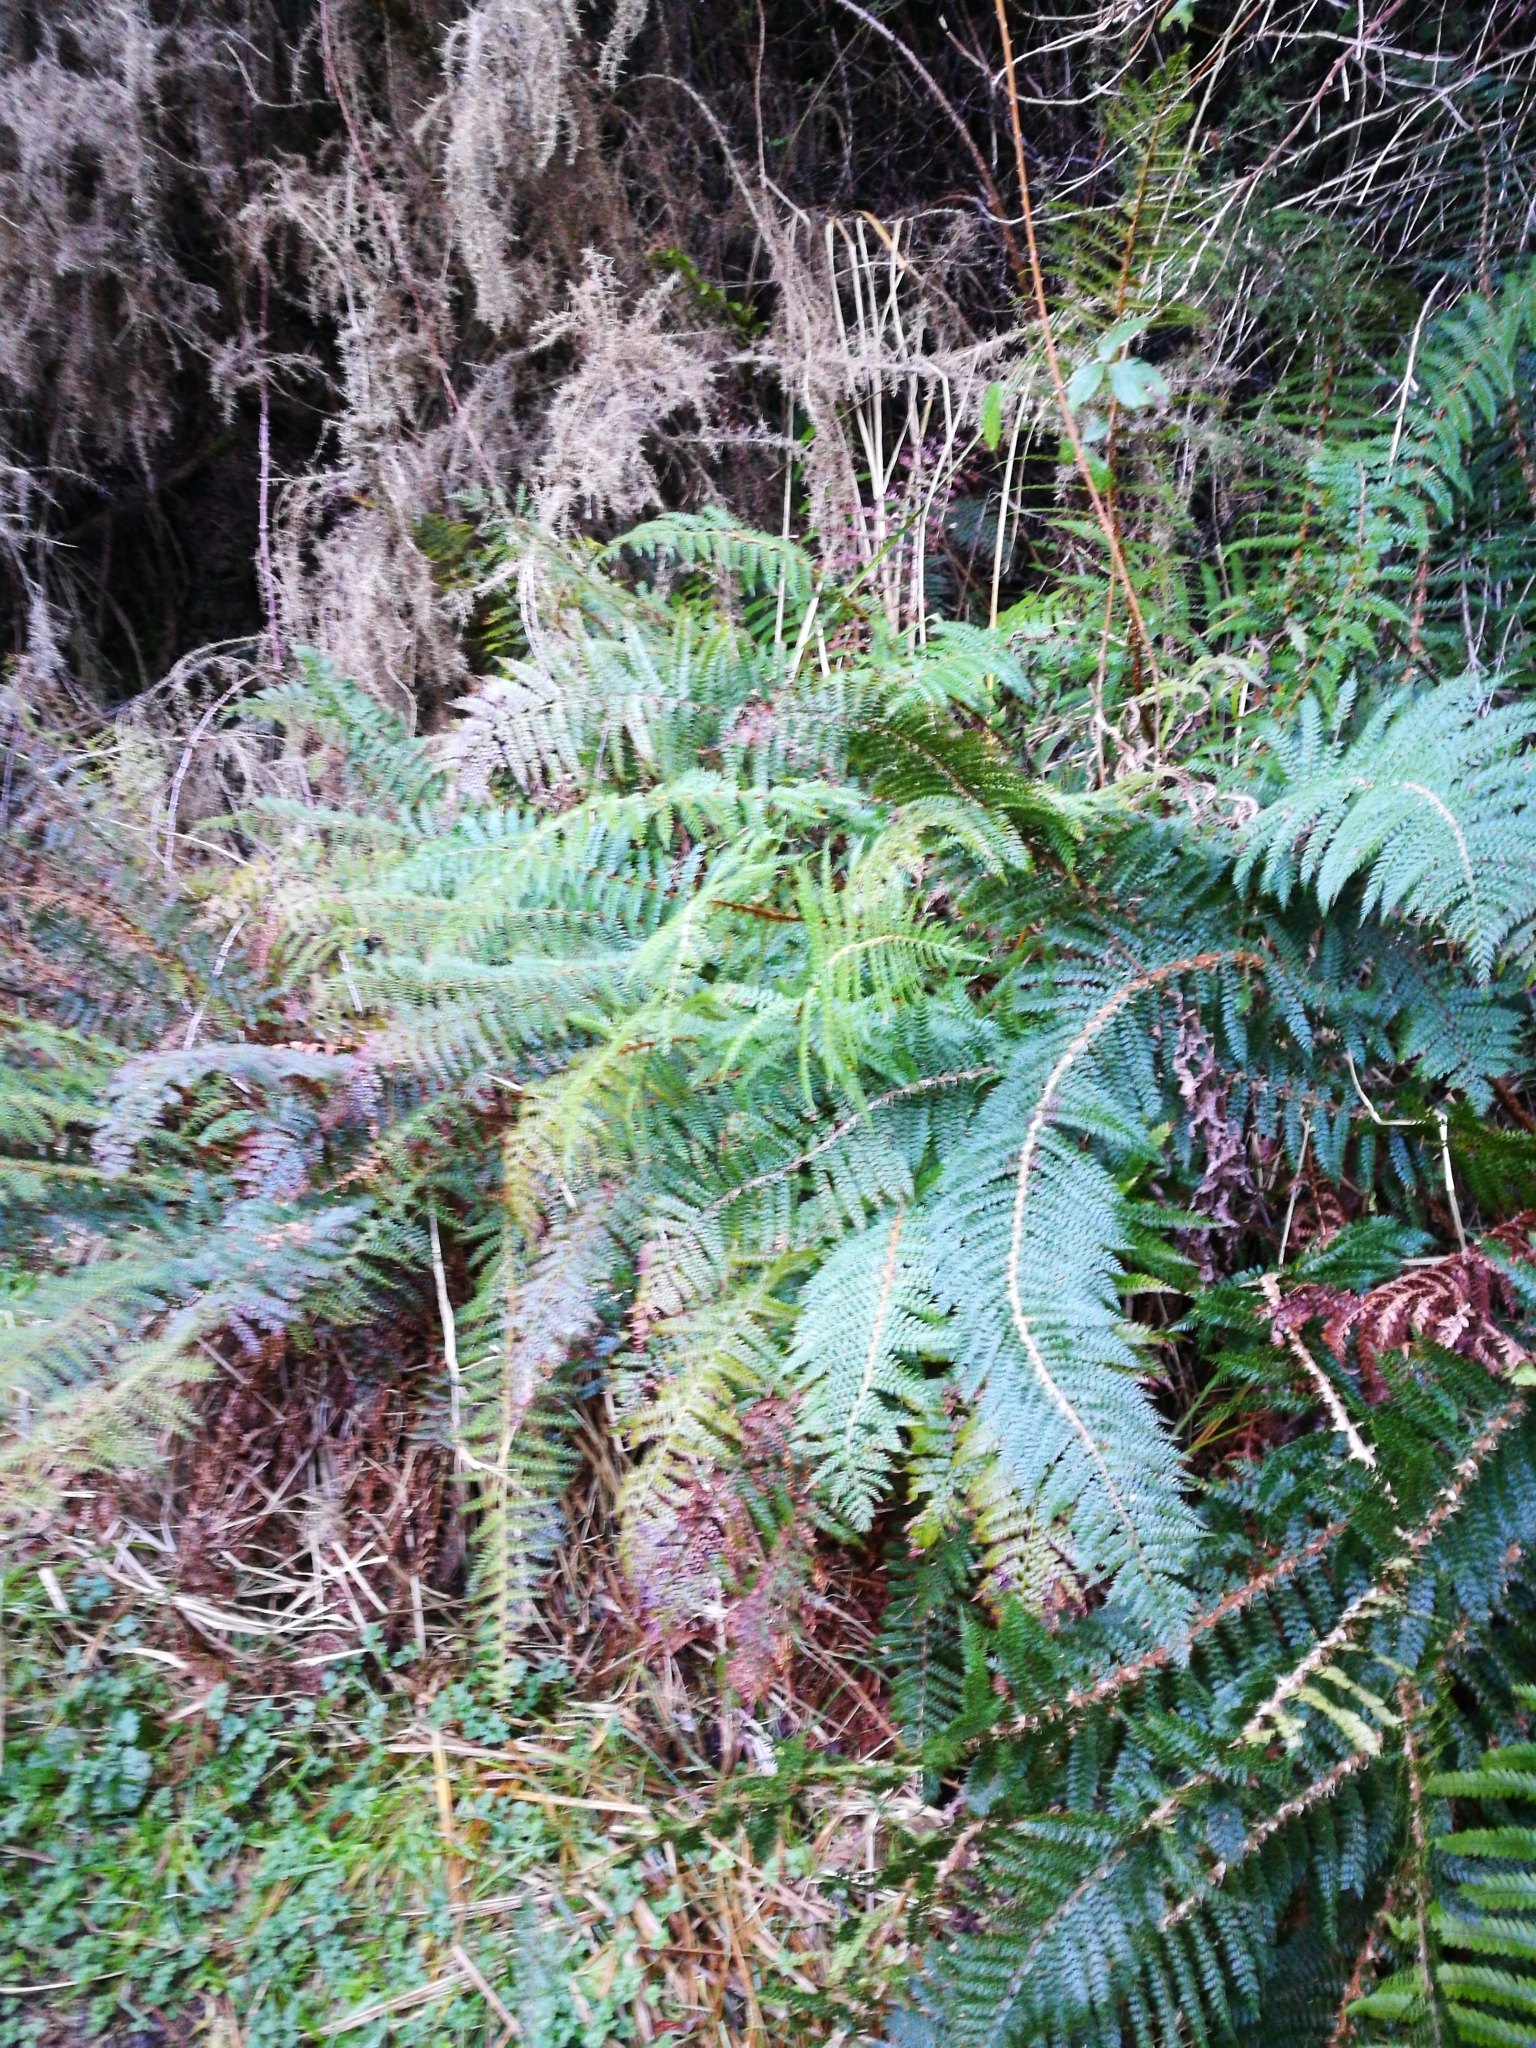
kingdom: Plantae
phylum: Tracheophyta
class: Polypodiopsida
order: Polypodiales
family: Dryopteridaceae
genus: Polystichum
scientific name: Polystichum vestitum
